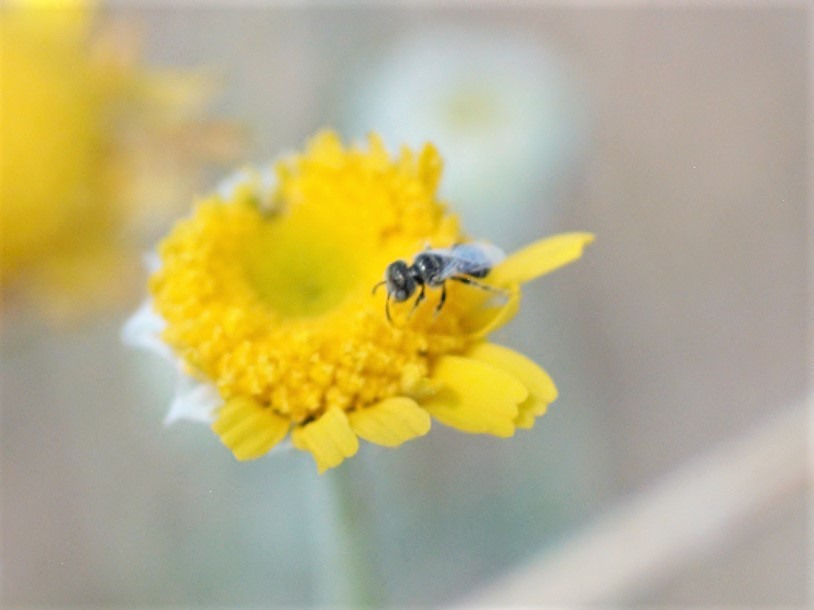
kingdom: Animalia
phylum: Arthropoda
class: Insecta
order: Hymenoptera
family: Andrenidae
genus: Perdita
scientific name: Perdita
